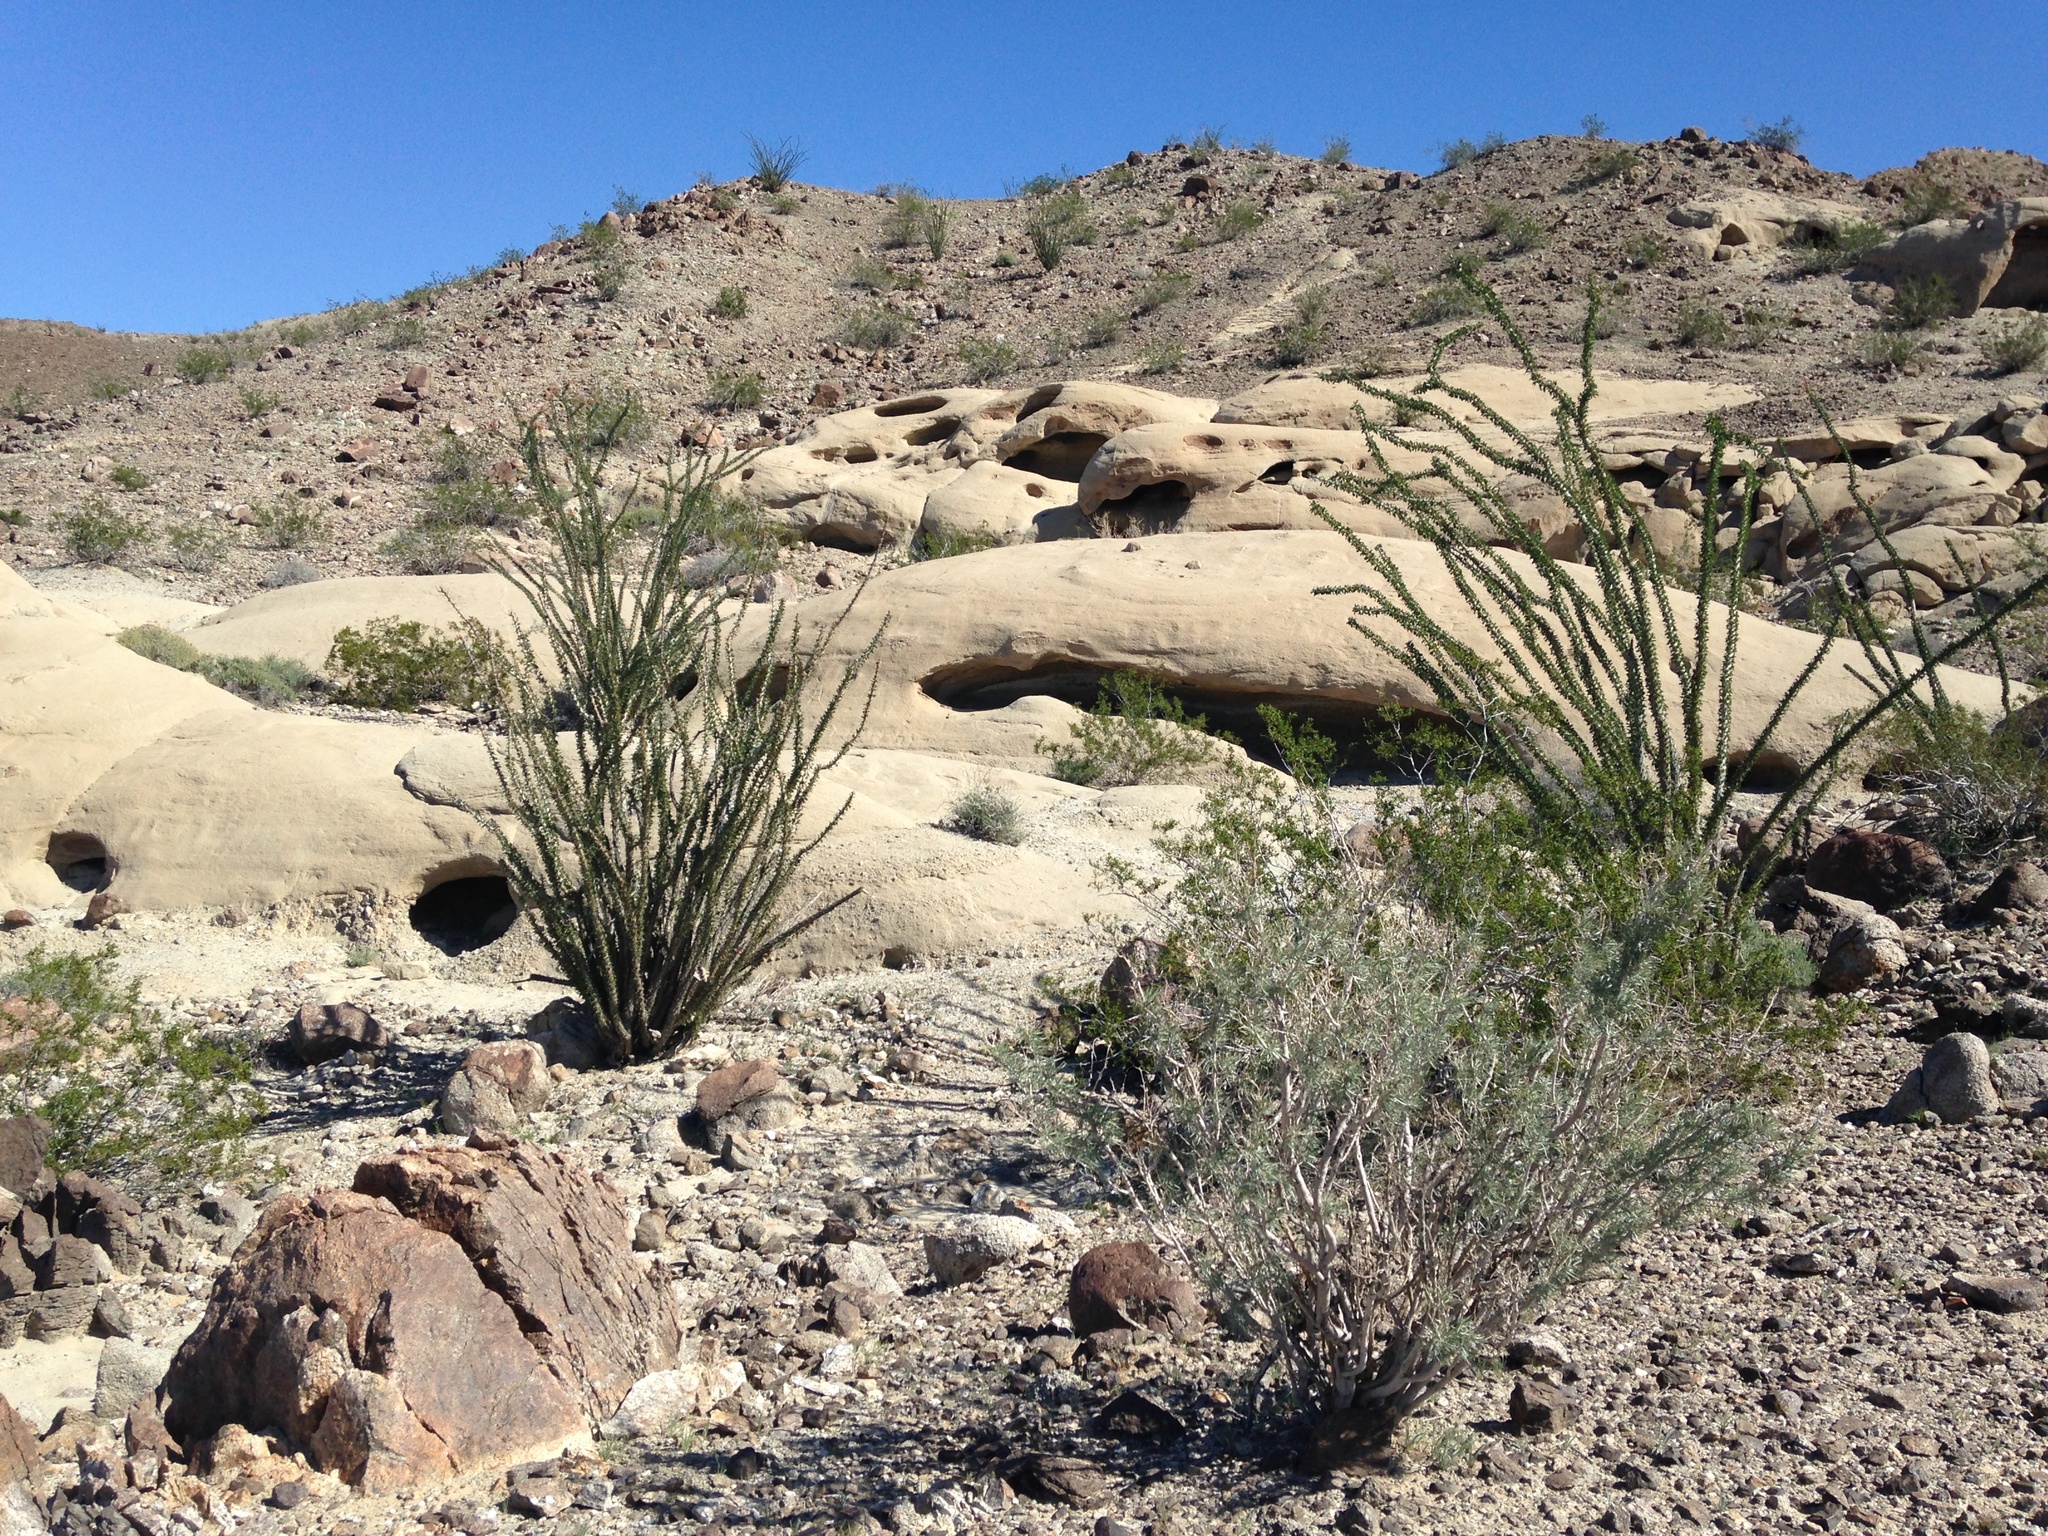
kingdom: Plantae
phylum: Tracheophyta
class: Magnoliopsida
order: Ericales
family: Fouquieriaceae
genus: Fouquieria
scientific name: Fouquieria splendens
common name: Vine-cactus
